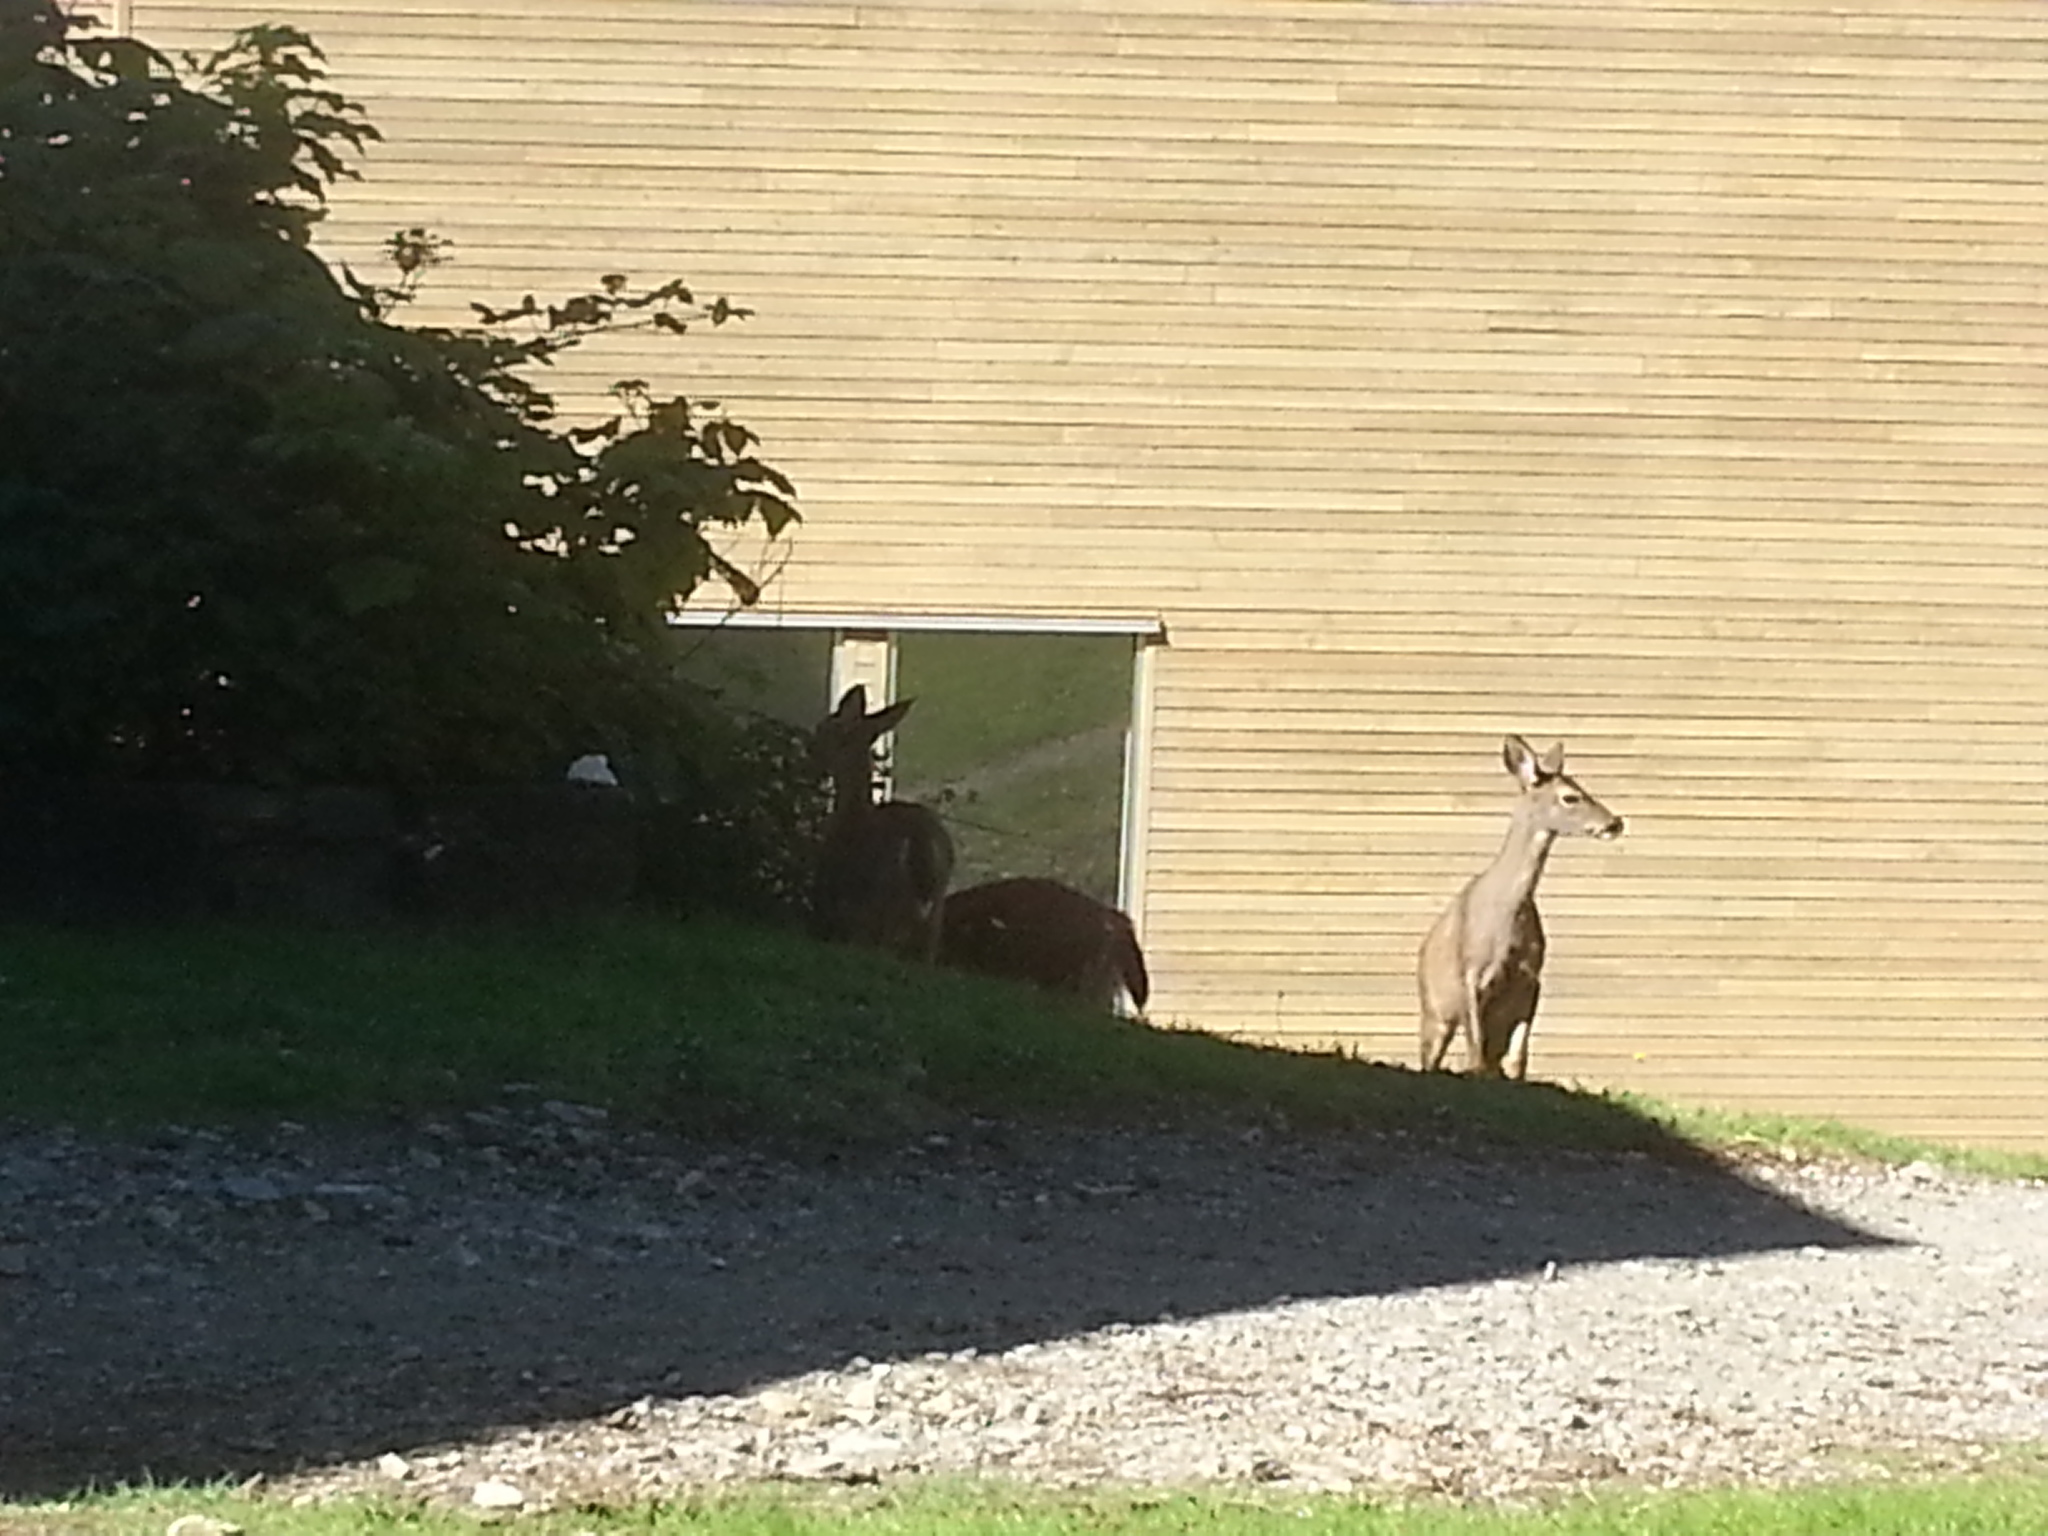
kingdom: Animalia
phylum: Chordata
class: Mammalia
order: Artiodactyla
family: Cervidae
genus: Odocoileus
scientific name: Odocoileus hemionus
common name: Mule deer
